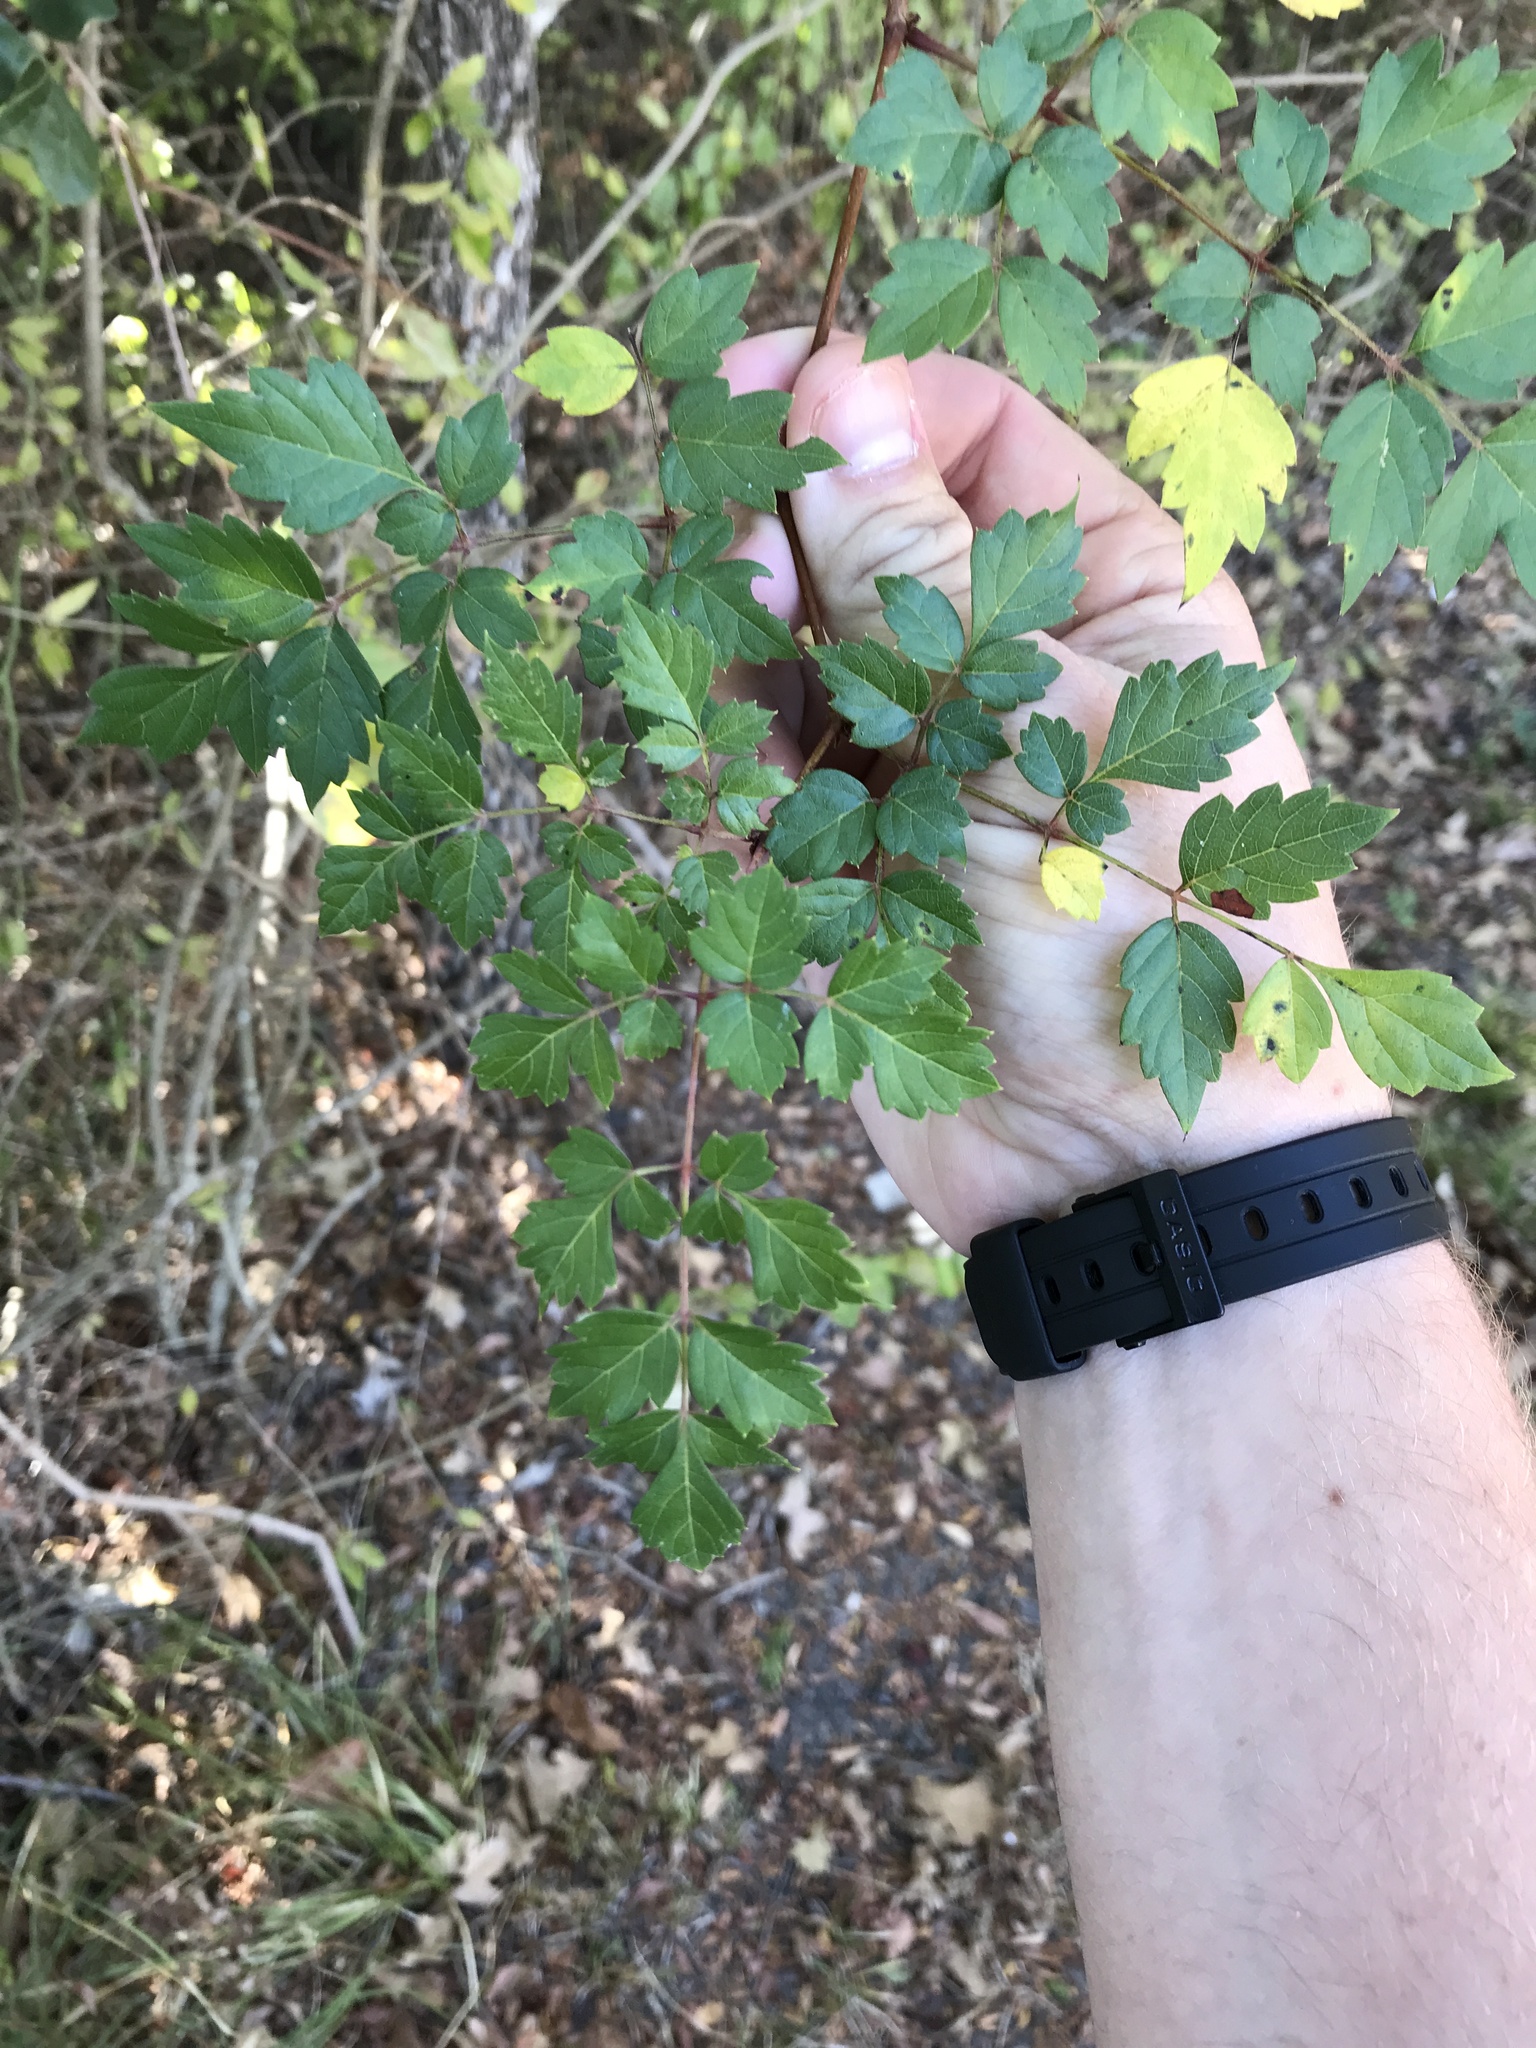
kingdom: Plantae
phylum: Tracheophyta
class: Magnoliopsida
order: Vitales
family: Vitaceae
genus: Nekemias
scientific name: Nekemias arborea
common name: Peppervine
